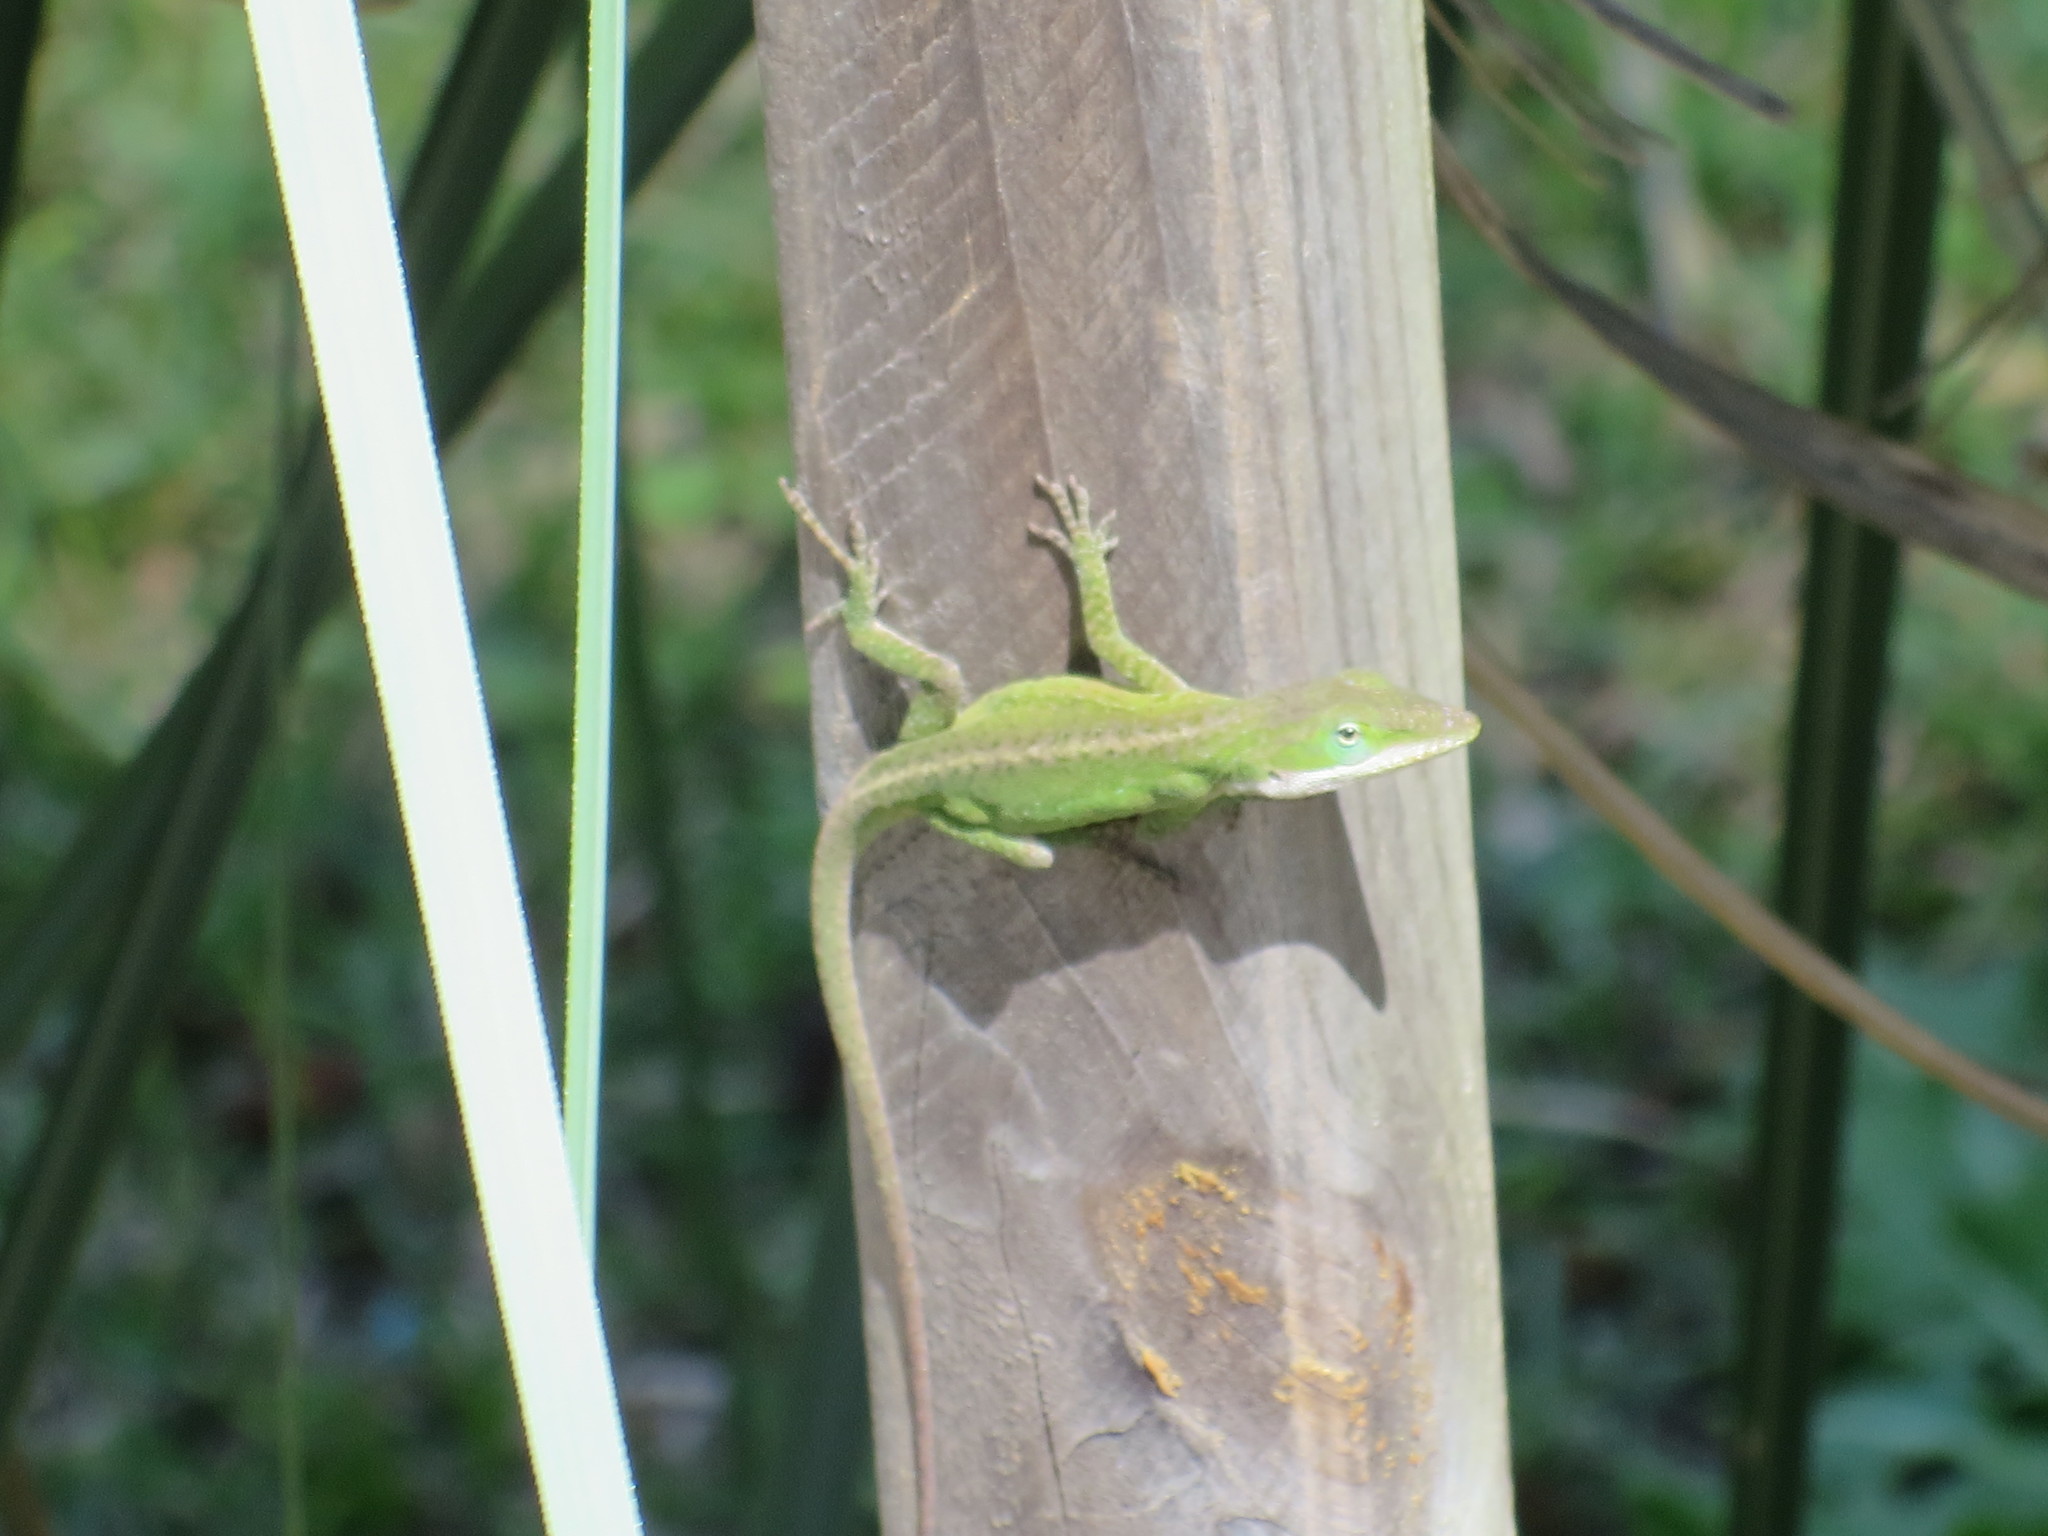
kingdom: Animalia
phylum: Chordata
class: Squamata
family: Dactyloidae
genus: Anolis
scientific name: Anolis carolinensis
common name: Green anole
